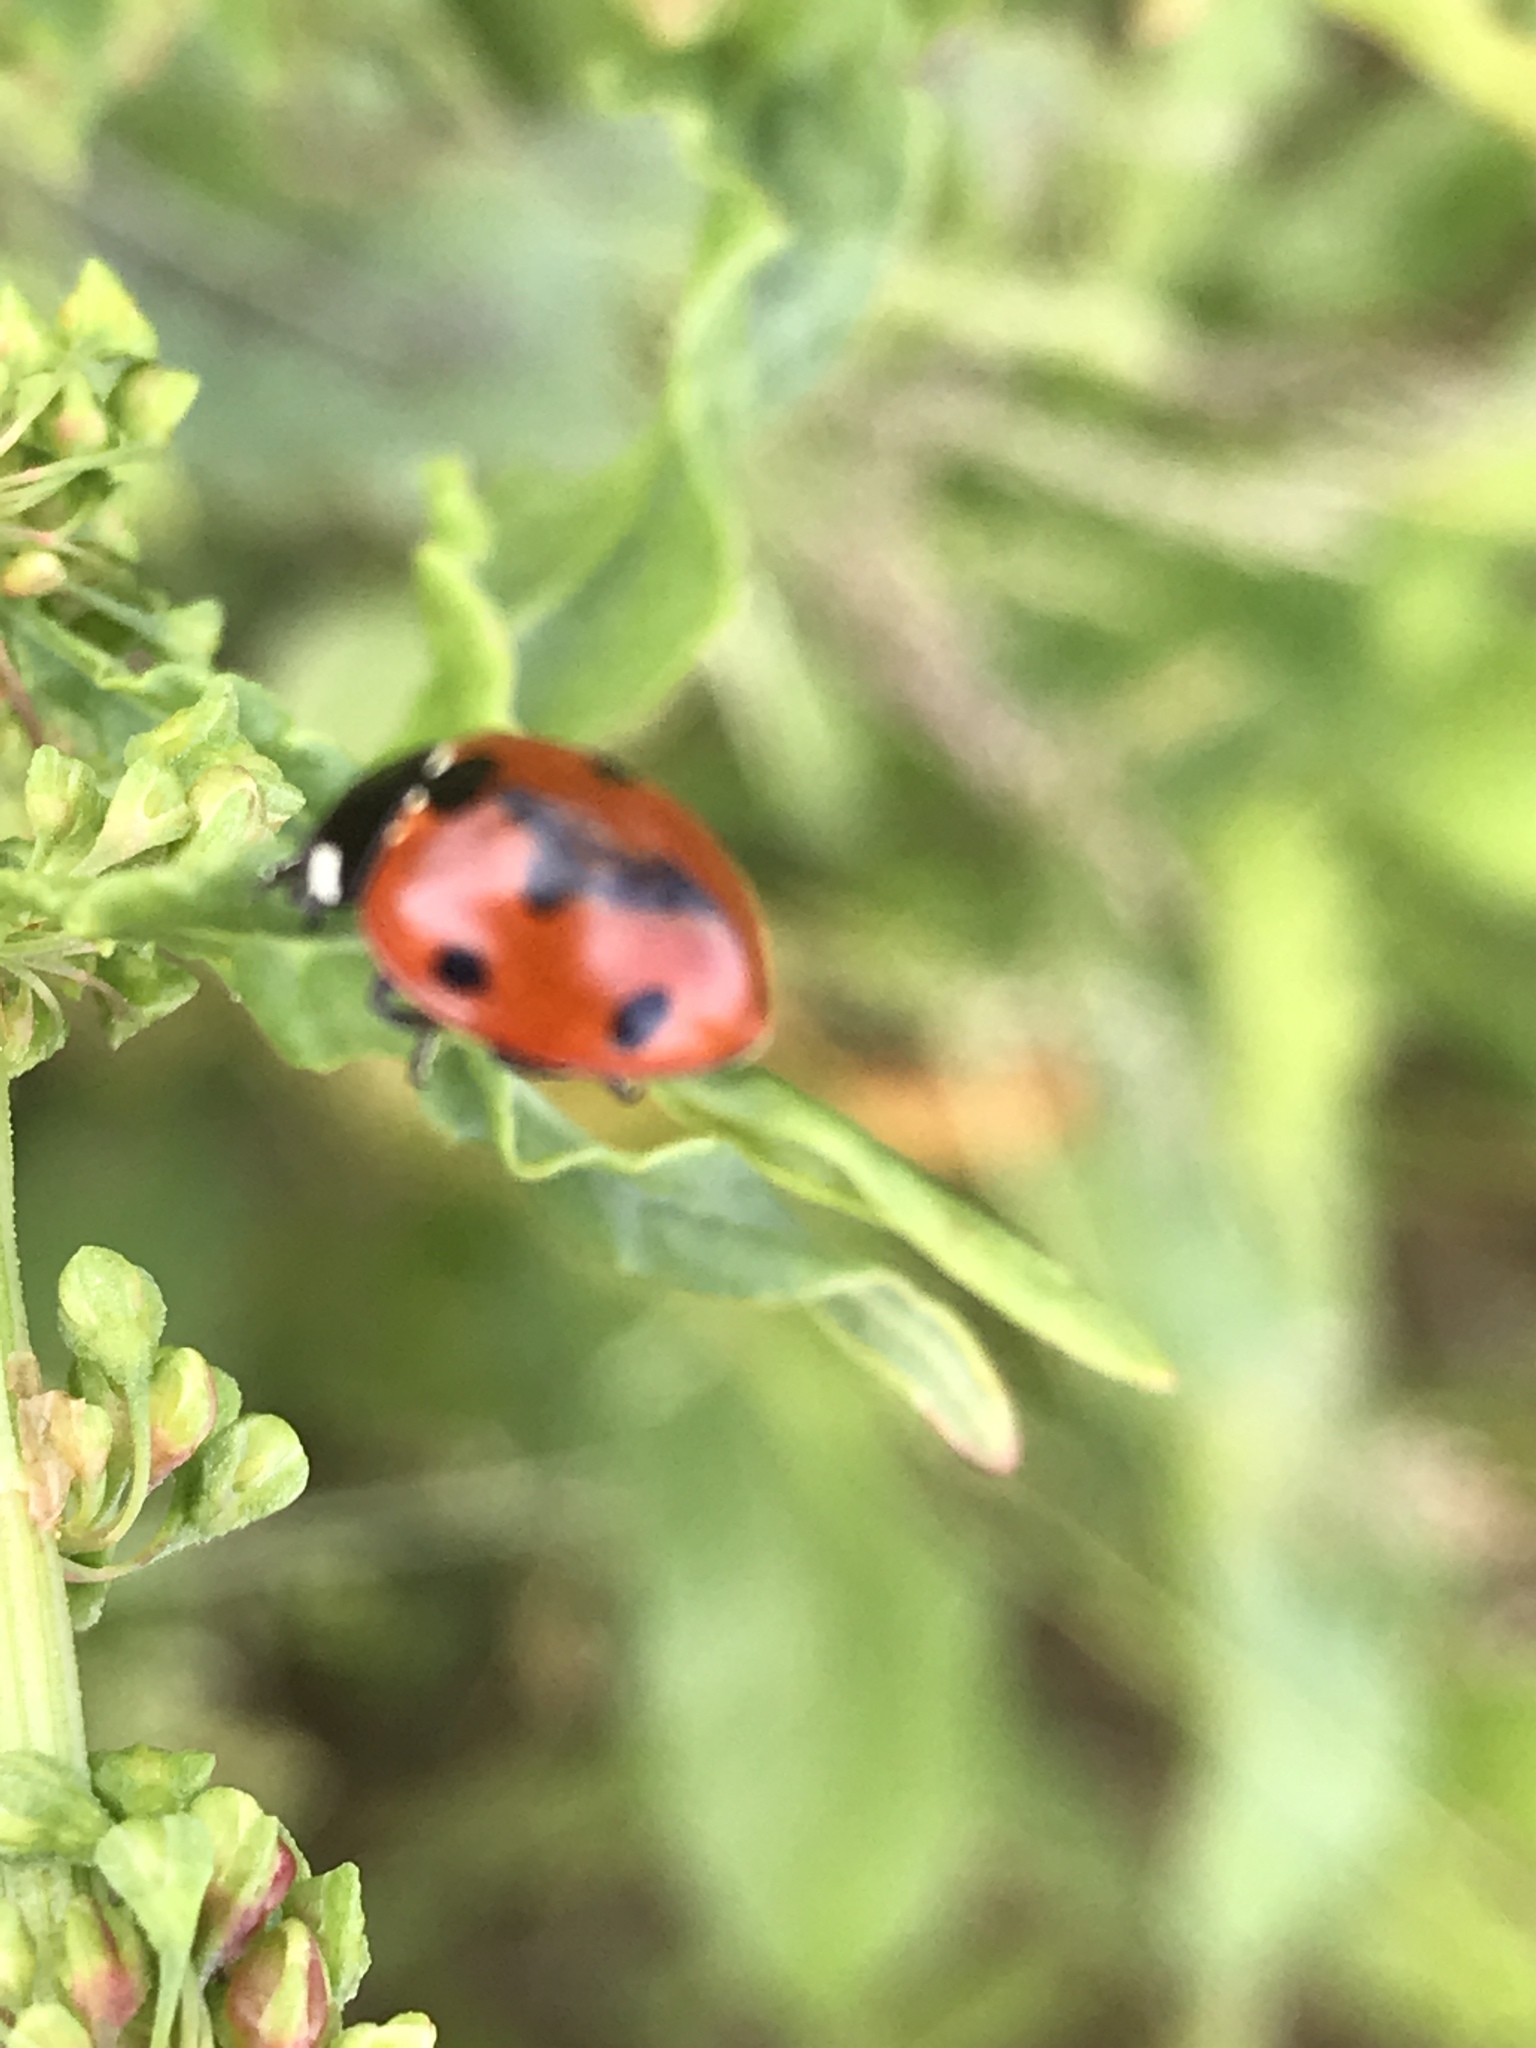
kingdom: Animalia
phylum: Arthropoda
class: Insecta
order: Coleoptera
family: Coccinellidae
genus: Coccinella
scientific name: Coccinella septempunctata
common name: Sevenspotted lady beetle
